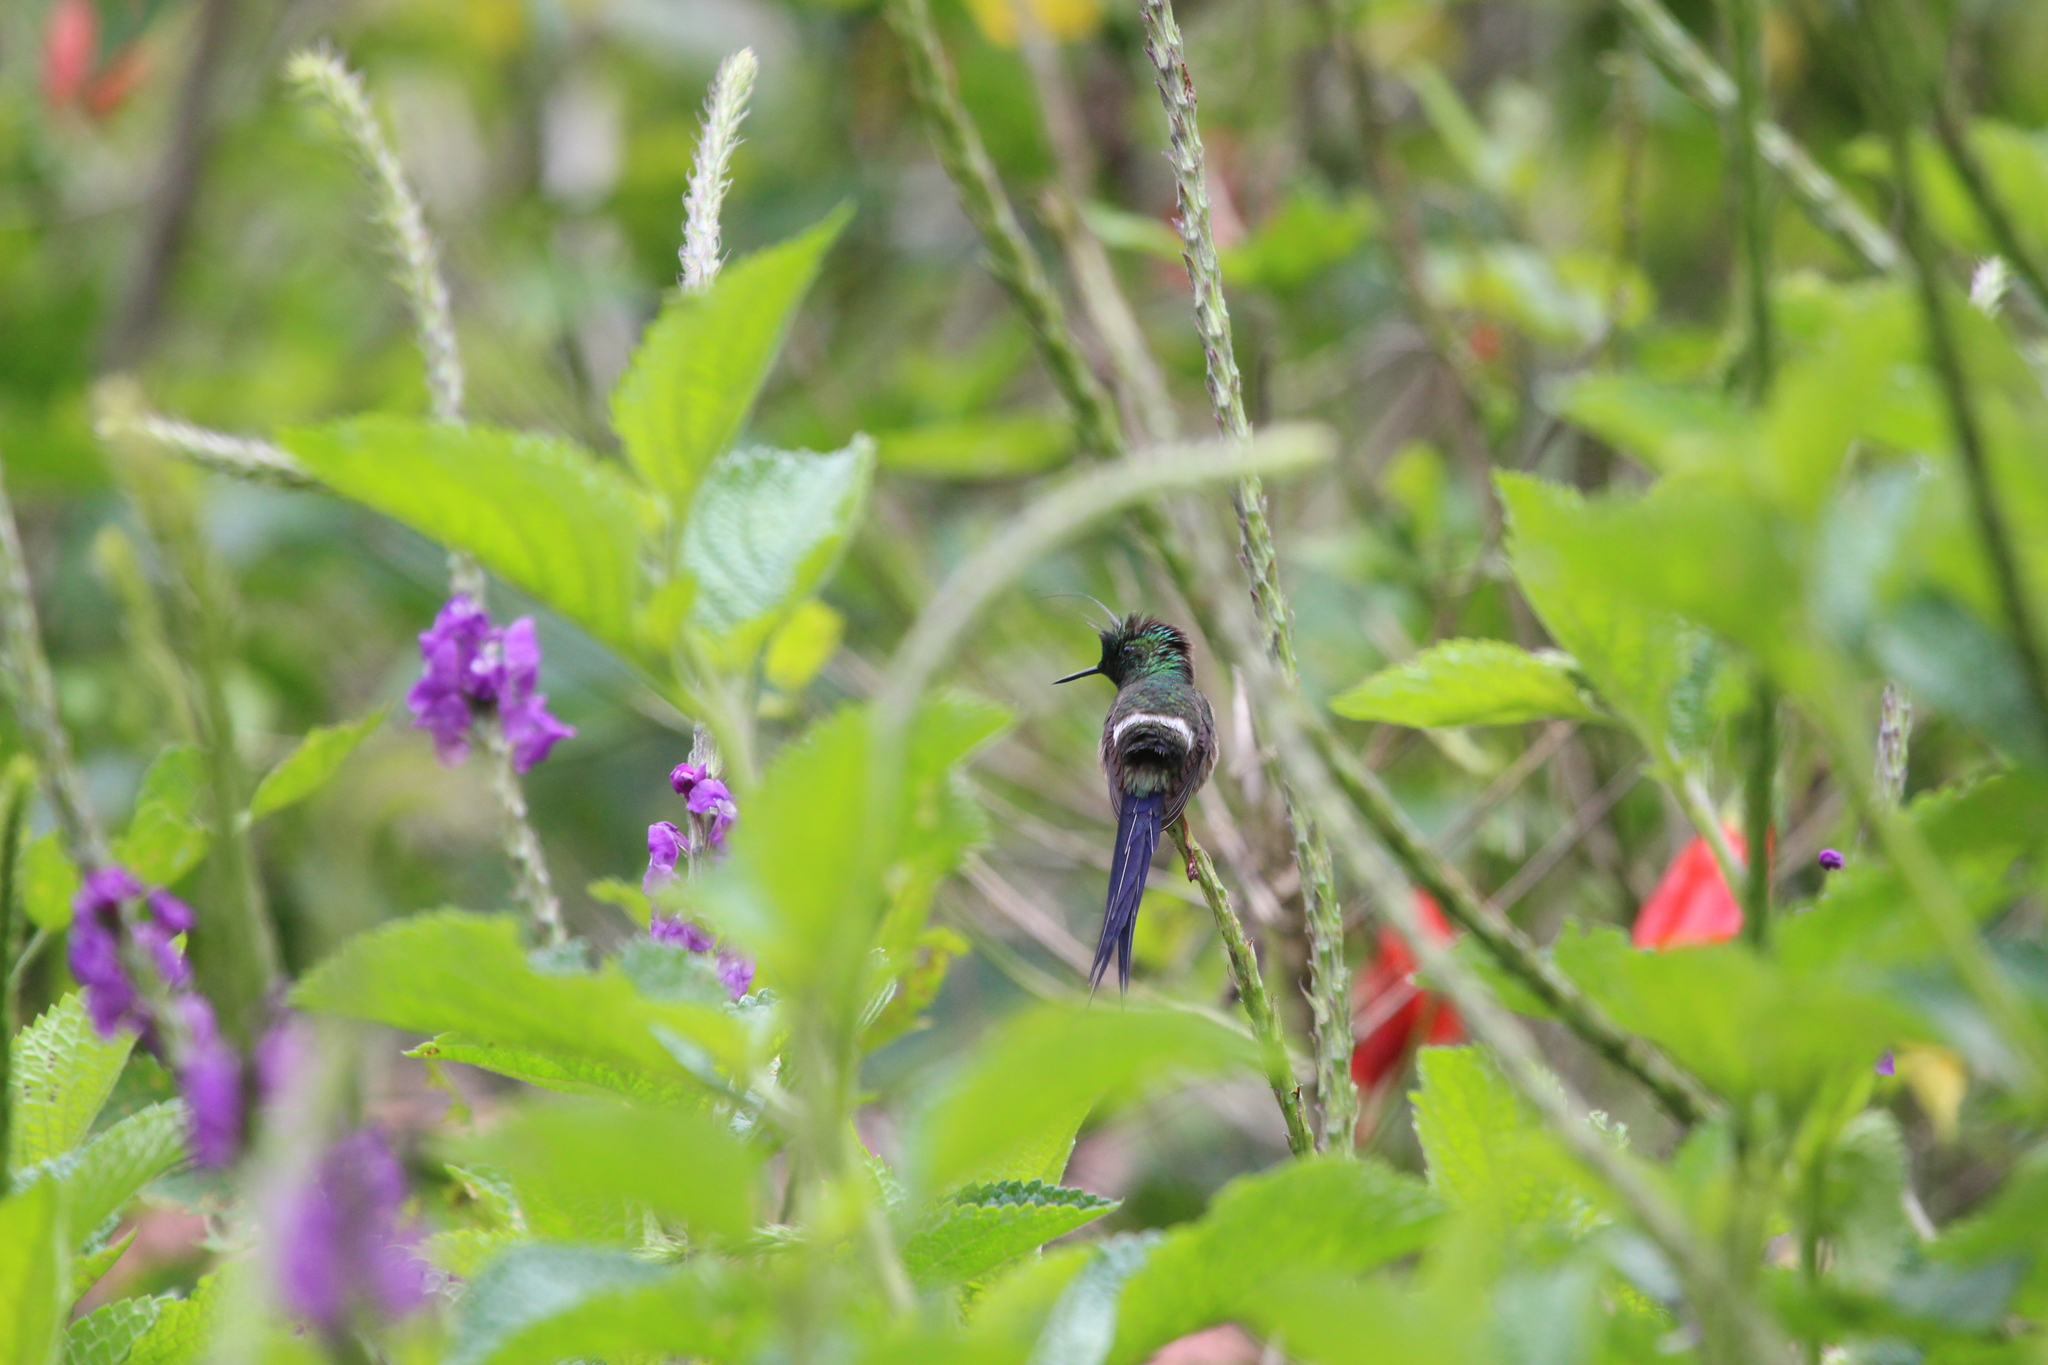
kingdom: Animalia
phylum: Chordata
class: Aves
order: Apodiformes
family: Trochilidae
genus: Discosura
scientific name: Discosura popelairii
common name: Wire-crested thorntail
